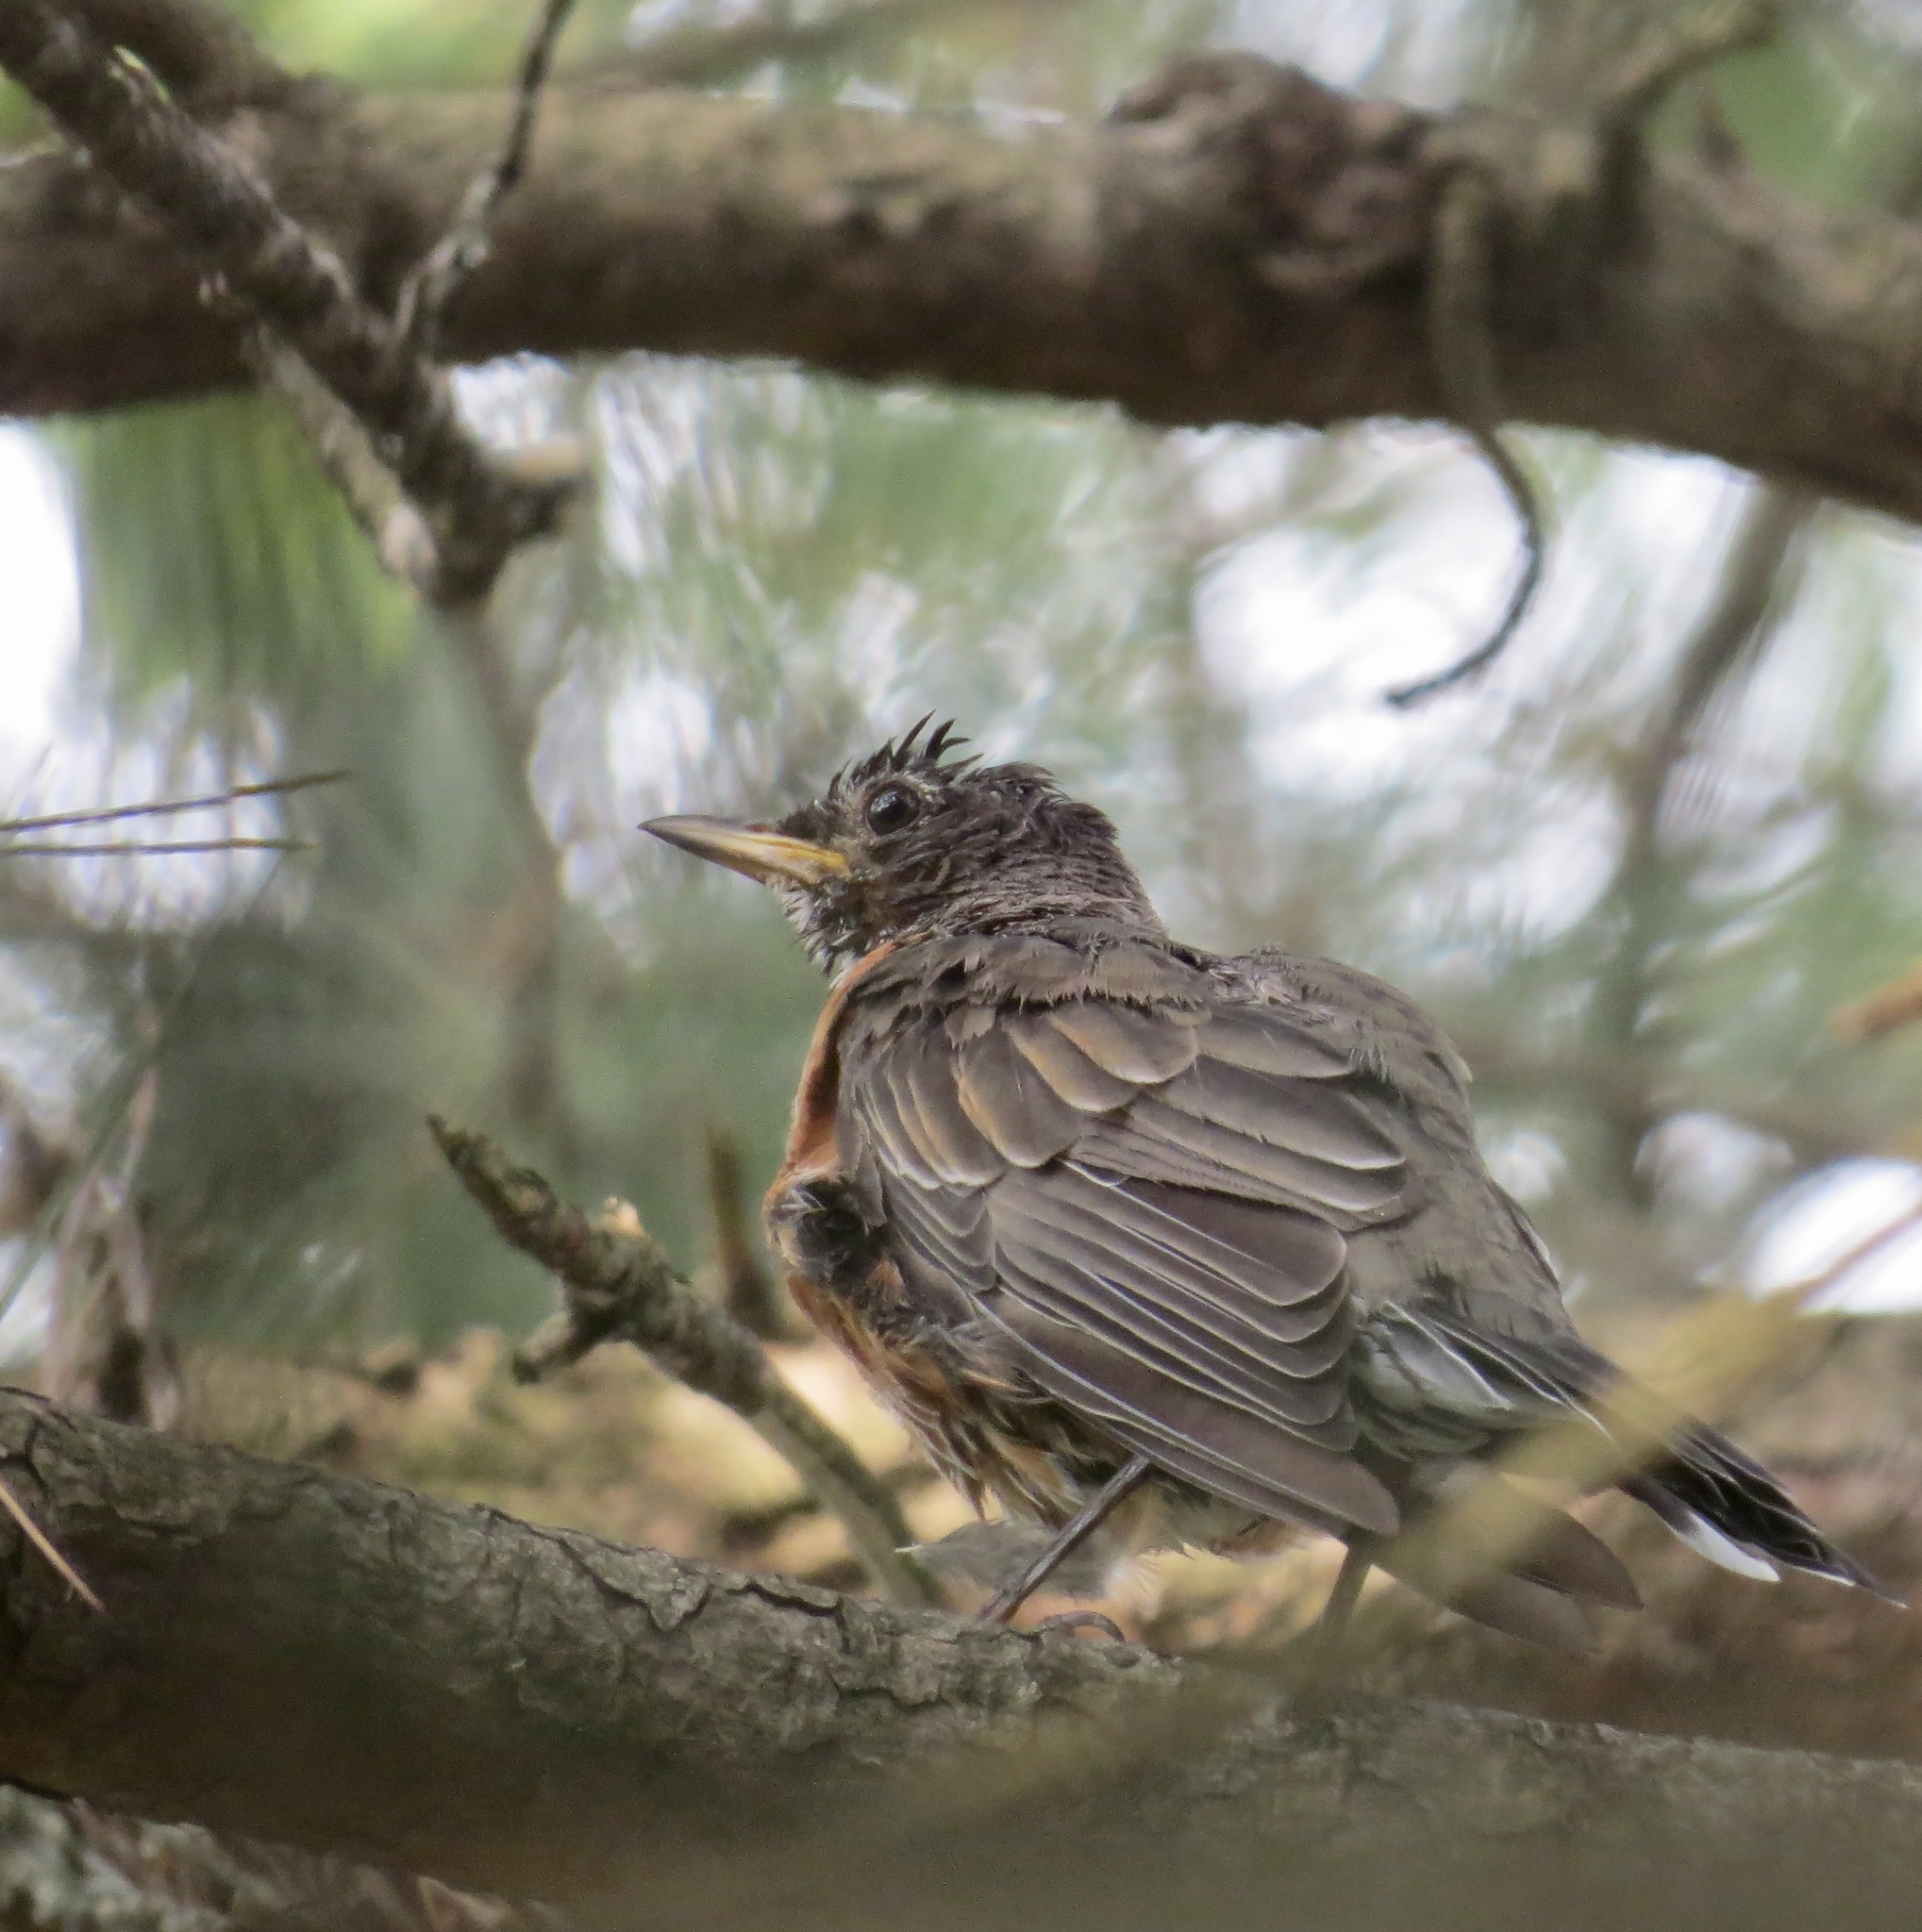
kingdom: Animalia
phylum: Chordata
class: Aves
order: Passeriformes
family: Turdidae
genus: Turdus
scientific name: Turdus migratorius
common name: American robin
